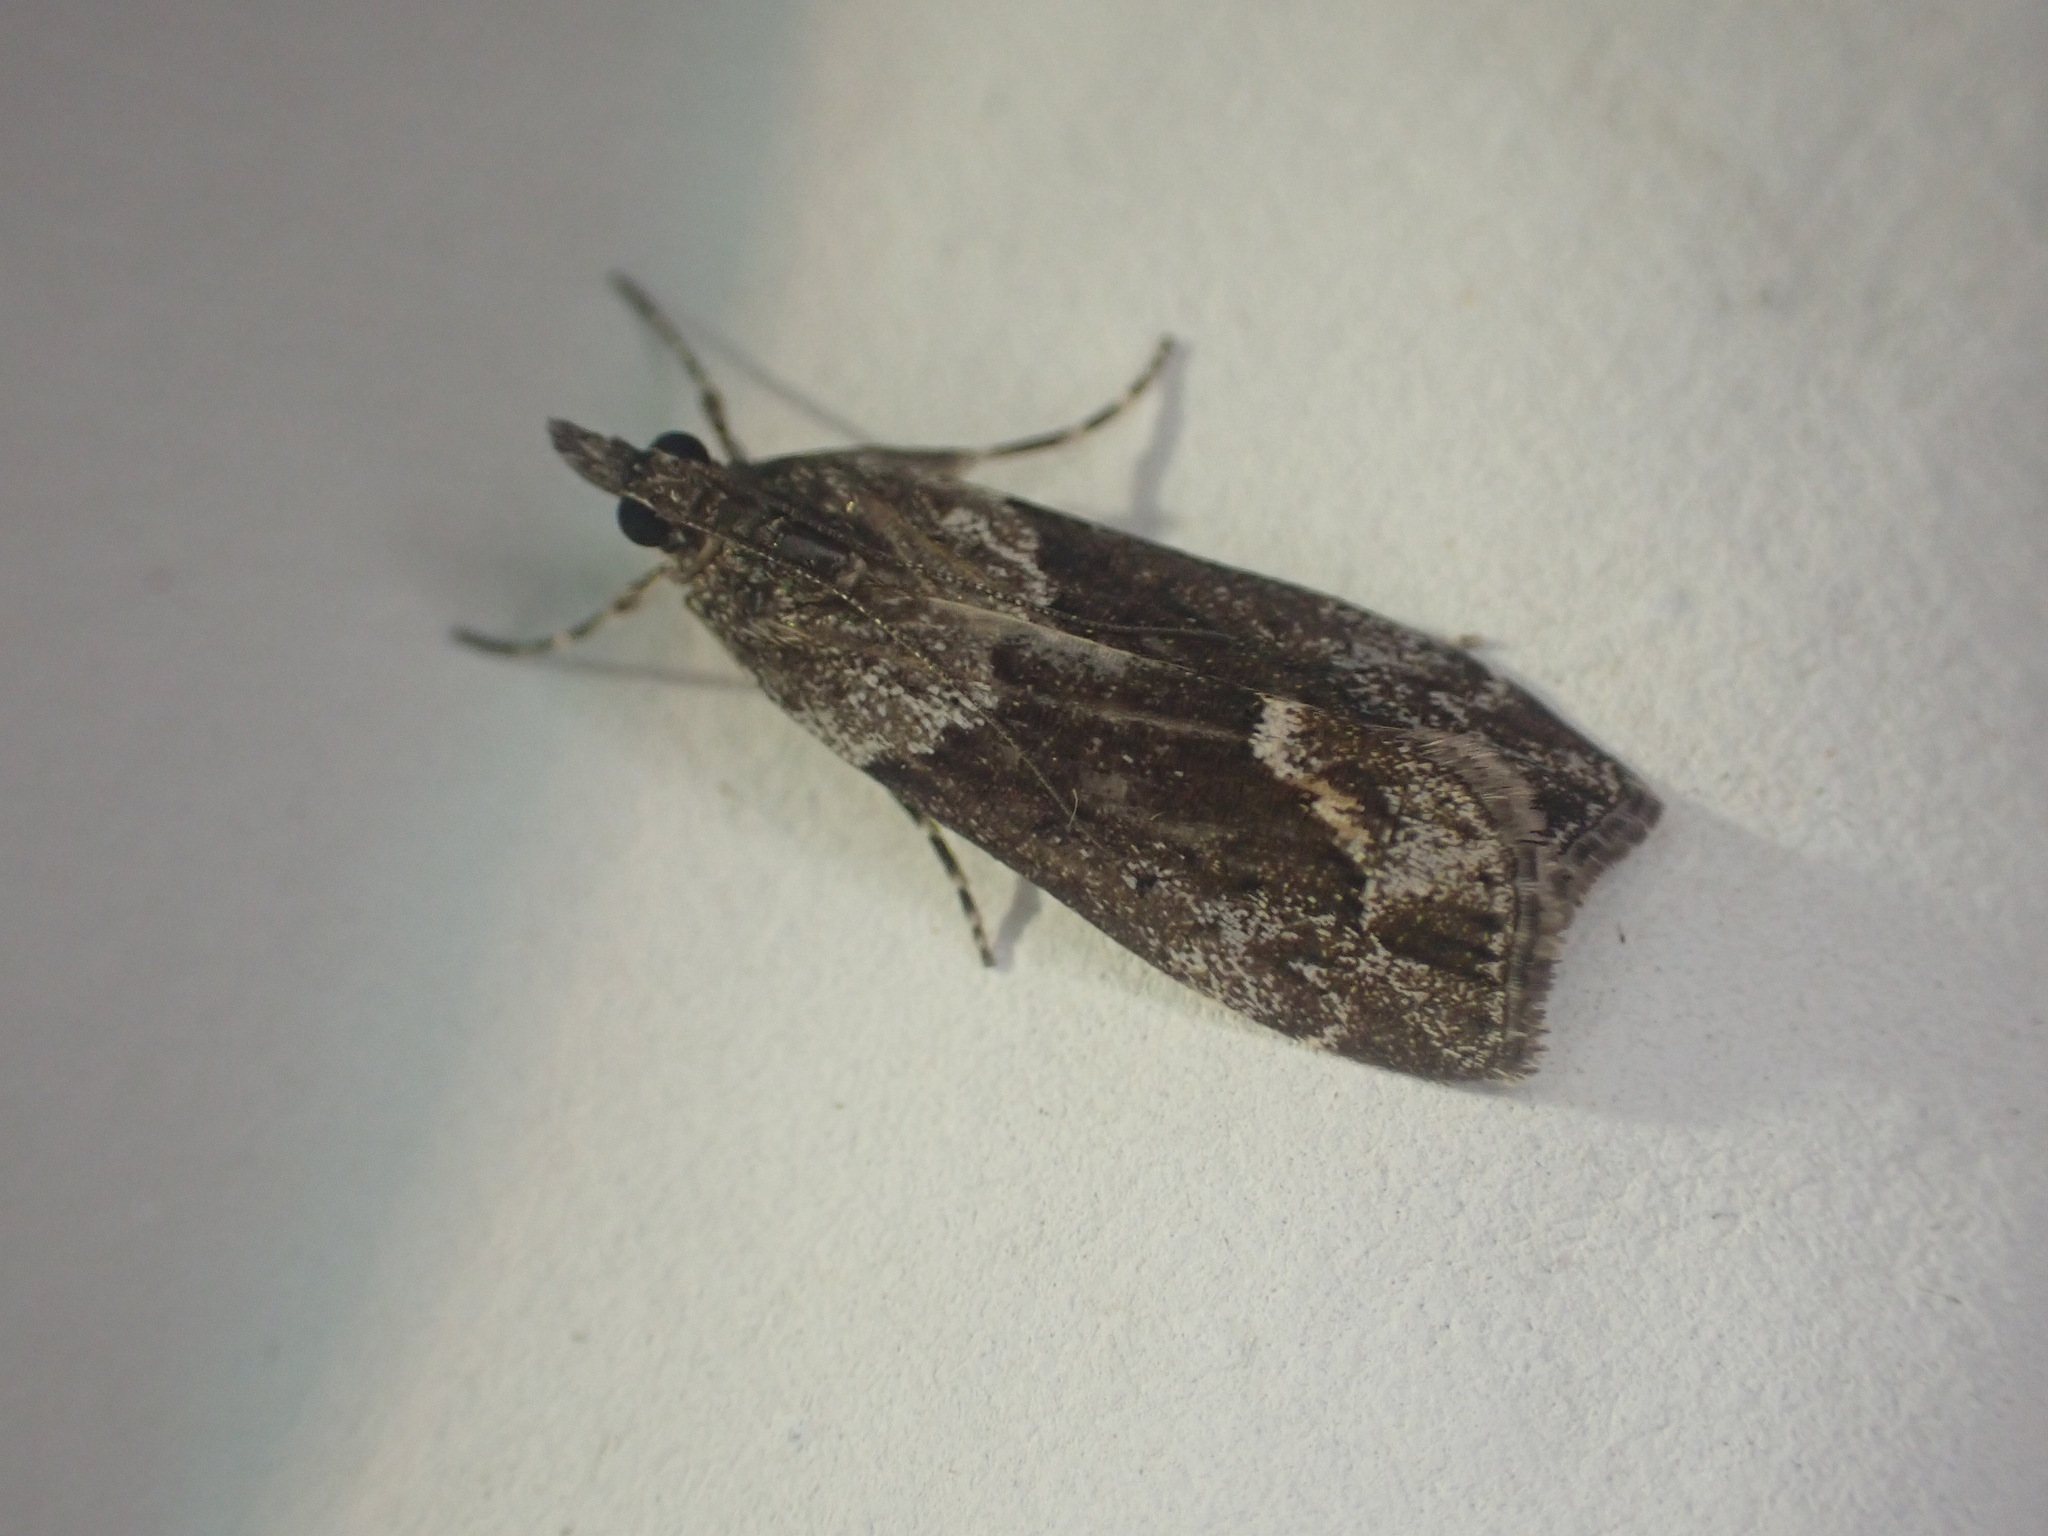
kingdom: Animalia
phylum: Arthropoda
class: Insecta
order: Lepidoptera
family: Crambidae
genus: Eudonia
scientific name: Eudonia submarginalis
